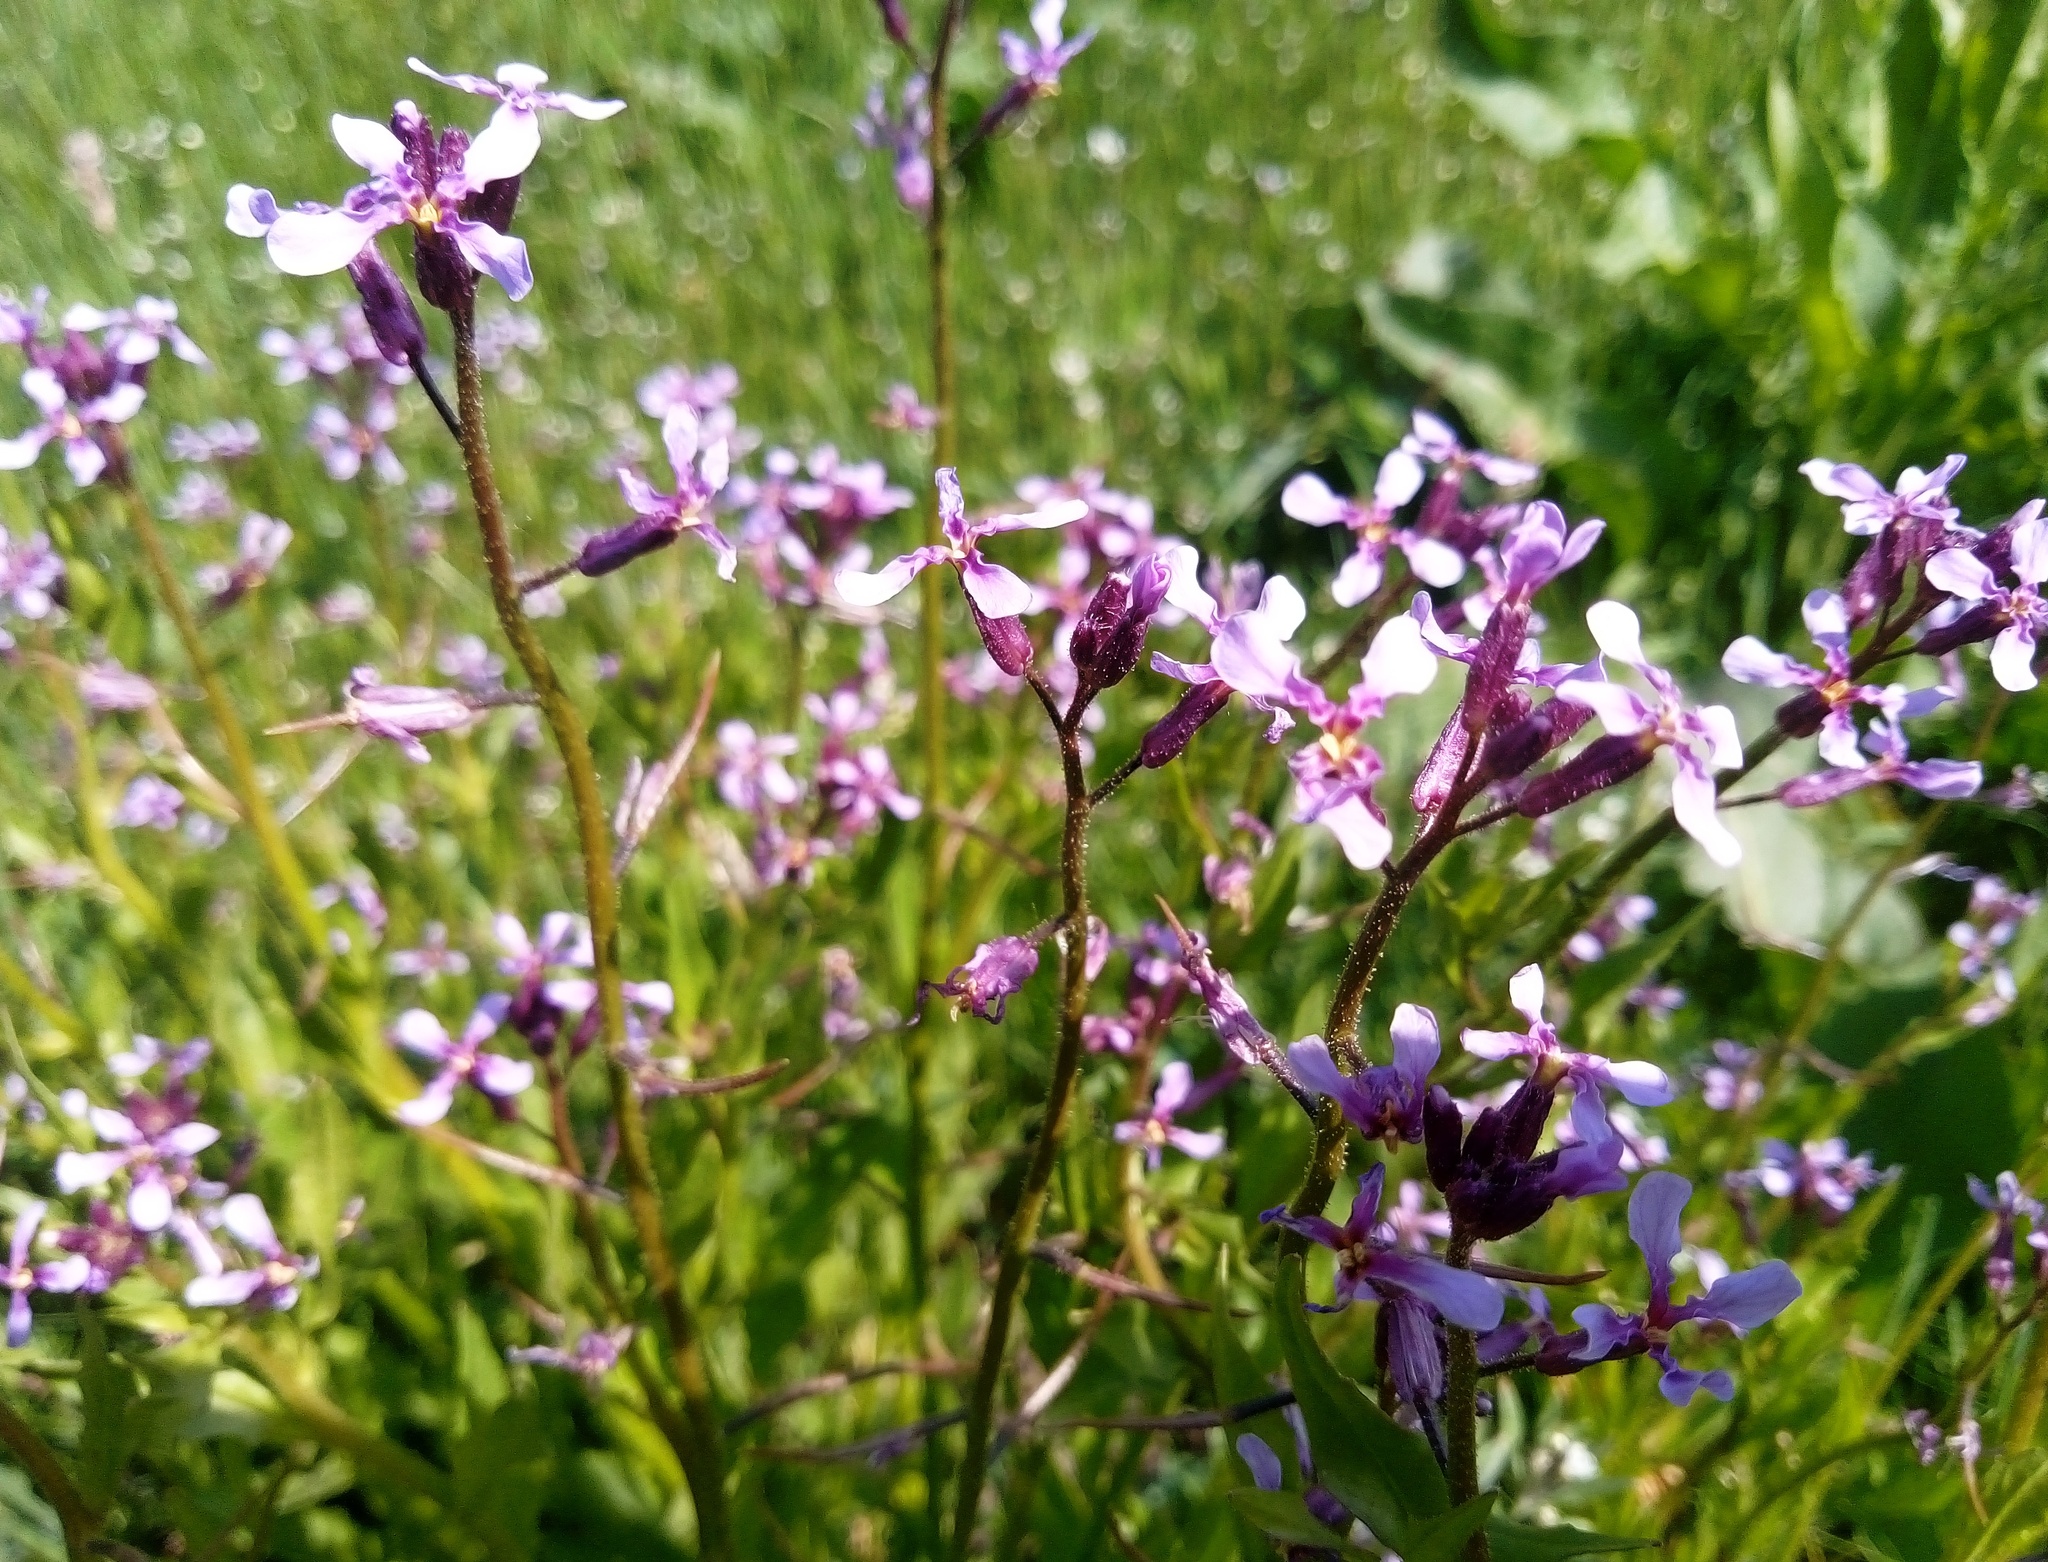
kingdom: Plantae
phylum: Tracheophyta
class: Magnoliopsida
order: Brassicales
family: Brassicaceae
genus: Chorispora
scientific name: Chorispora tenella
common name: Crossflower
